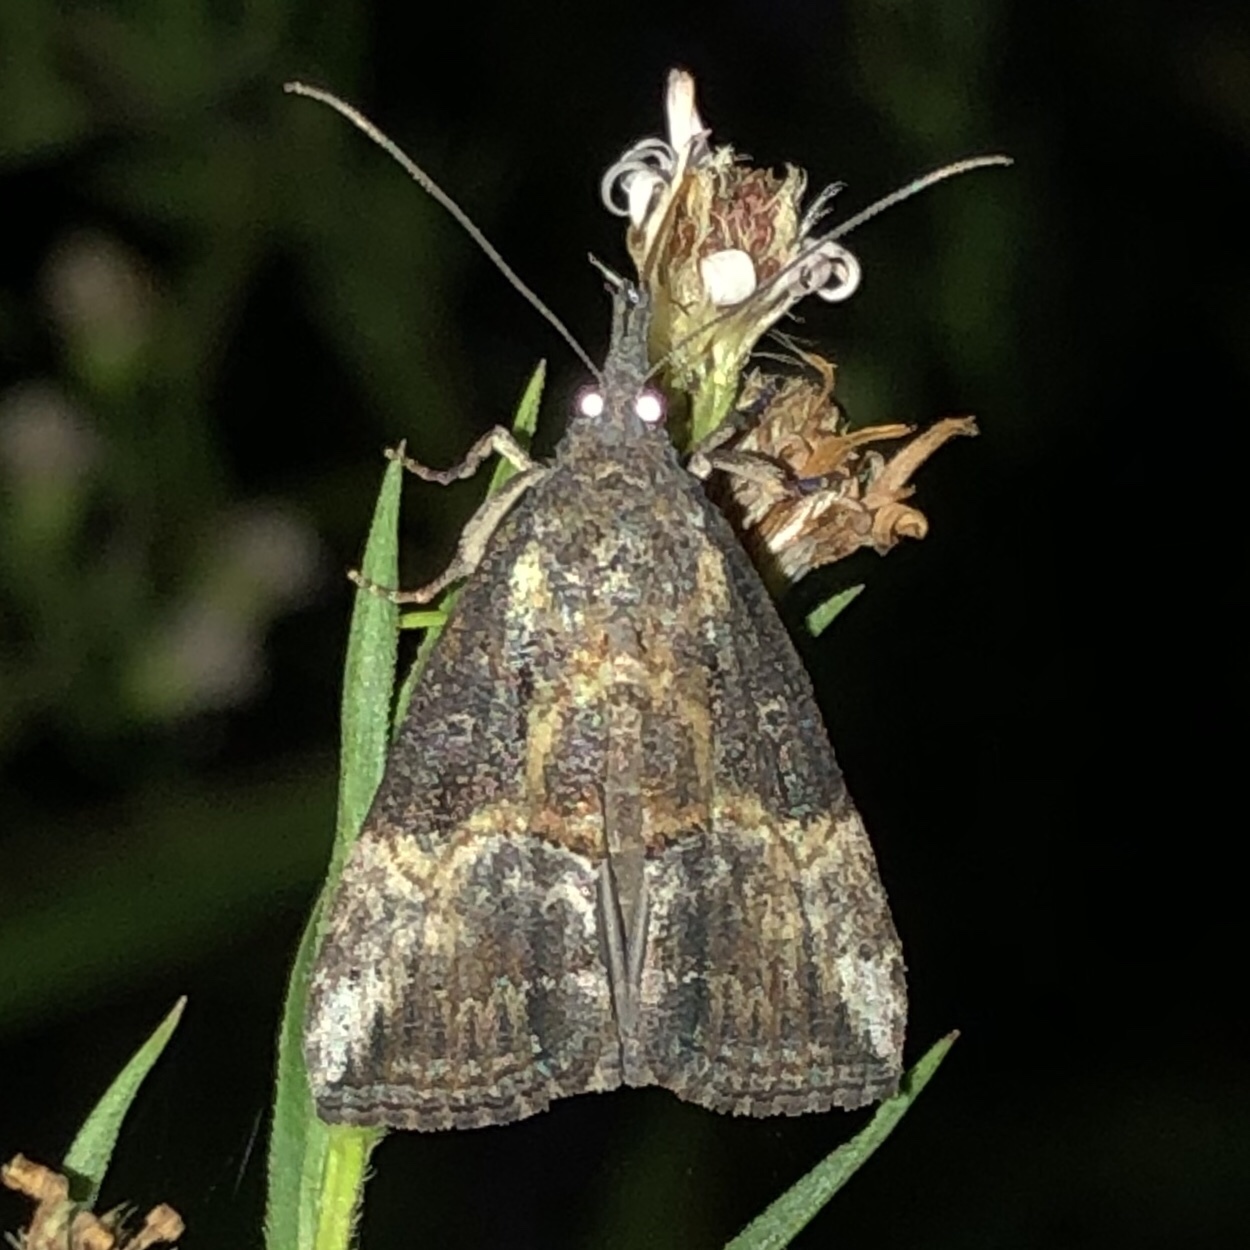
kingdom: Animalia
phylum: Arthropoda
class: Insecta
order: Lepidoptera
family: Erebidae
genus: Hypena
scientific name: Hypena scabra
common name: Green cloverworm
